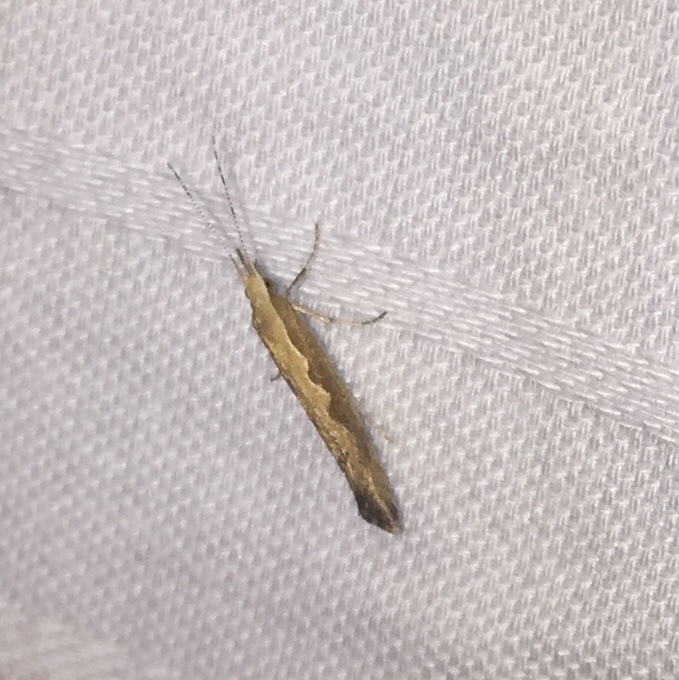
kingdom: Animalia
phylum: Arthropoda
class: Insecta
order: Lepidoptera
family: Plutellidae
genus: Plutella
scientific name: Plutella xylostella
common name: Diamond-back moth
